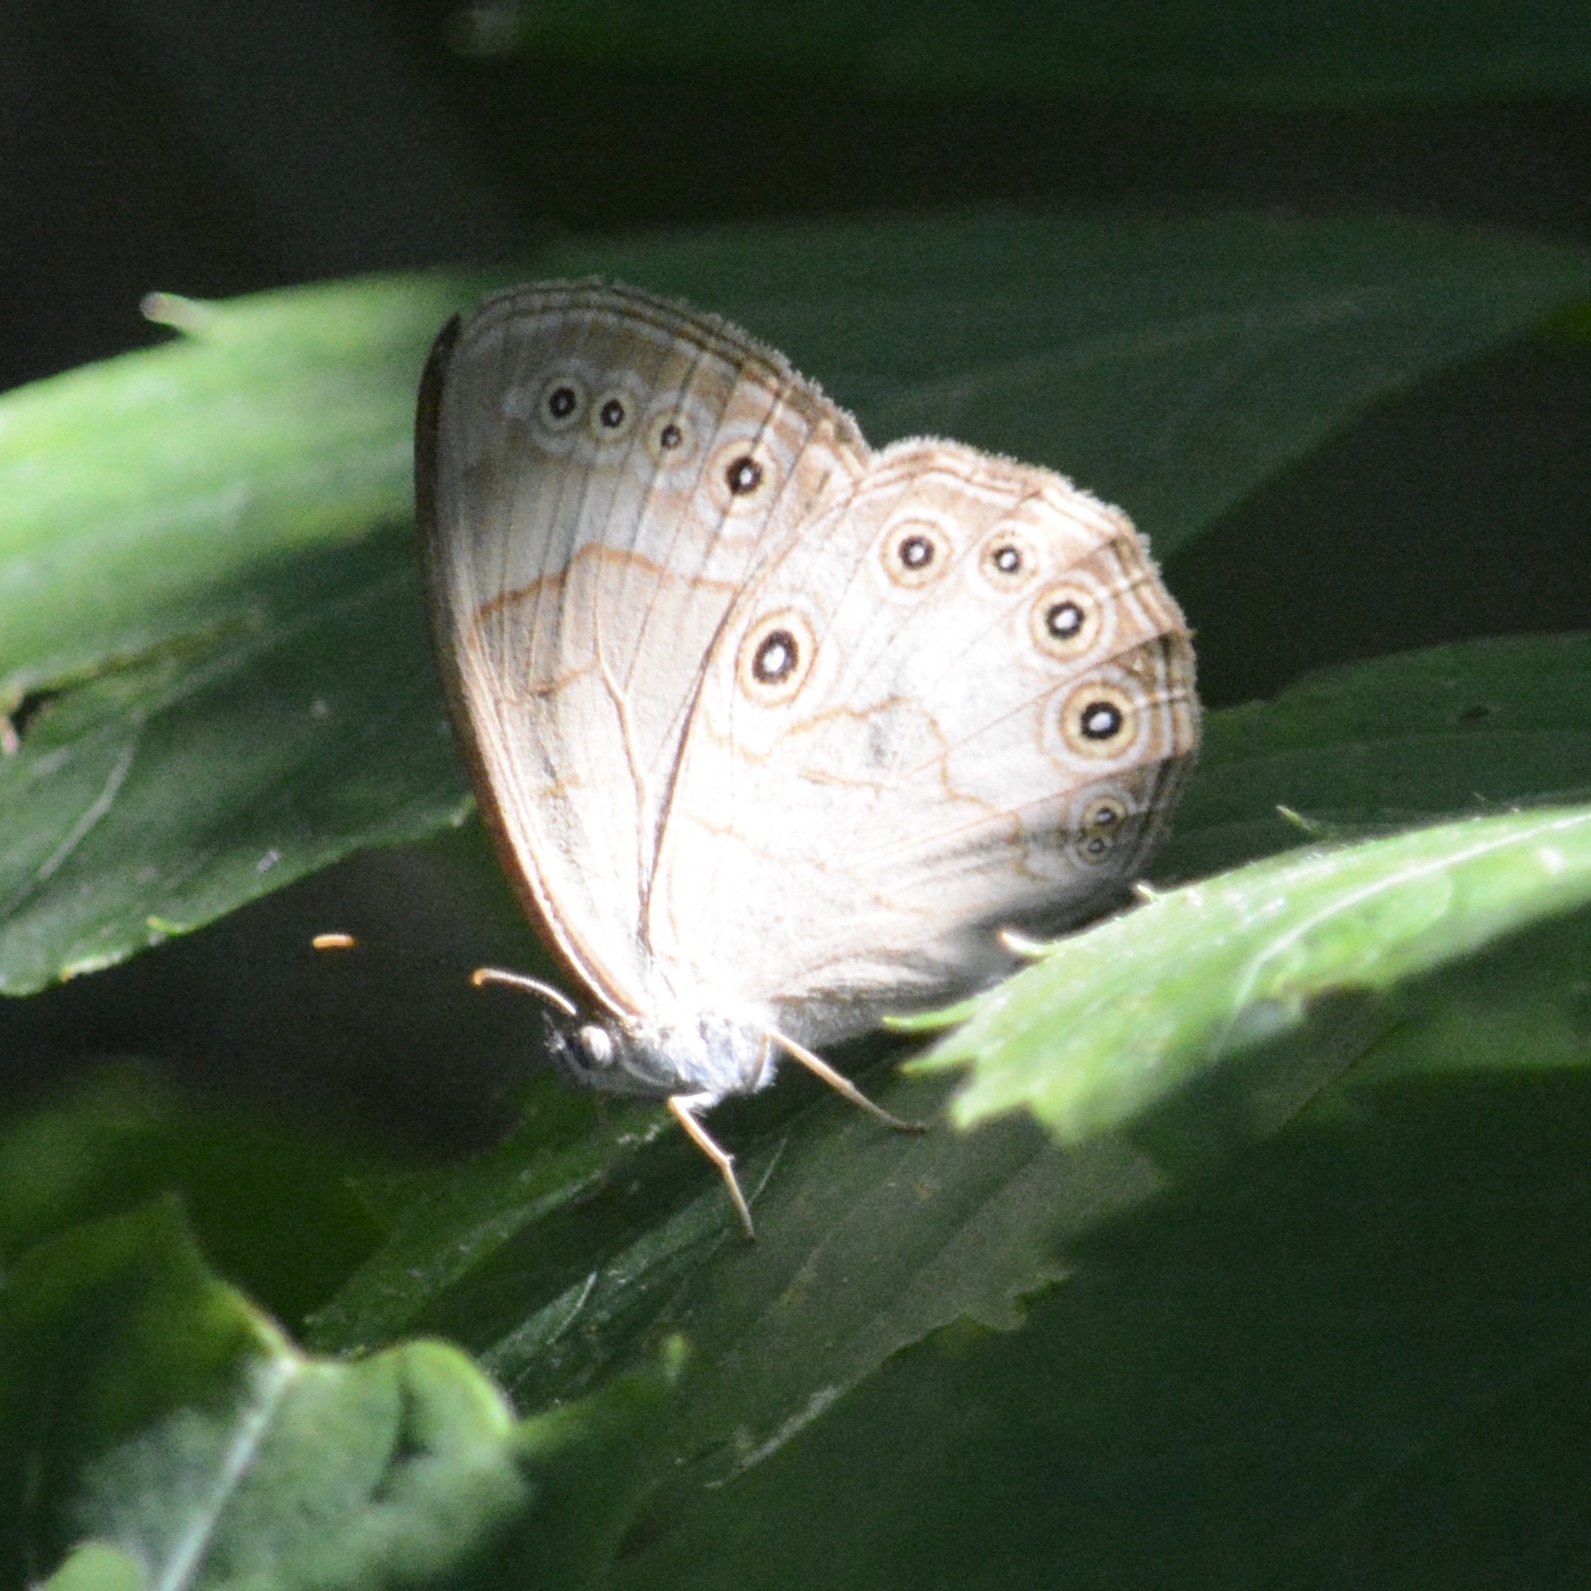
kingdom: Animalia
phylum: Arthropoda
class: Insecta
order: Lepidoptera
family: Nymphalidae
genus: Lethe
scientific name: Lethe eurydice
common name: Eyed brown
